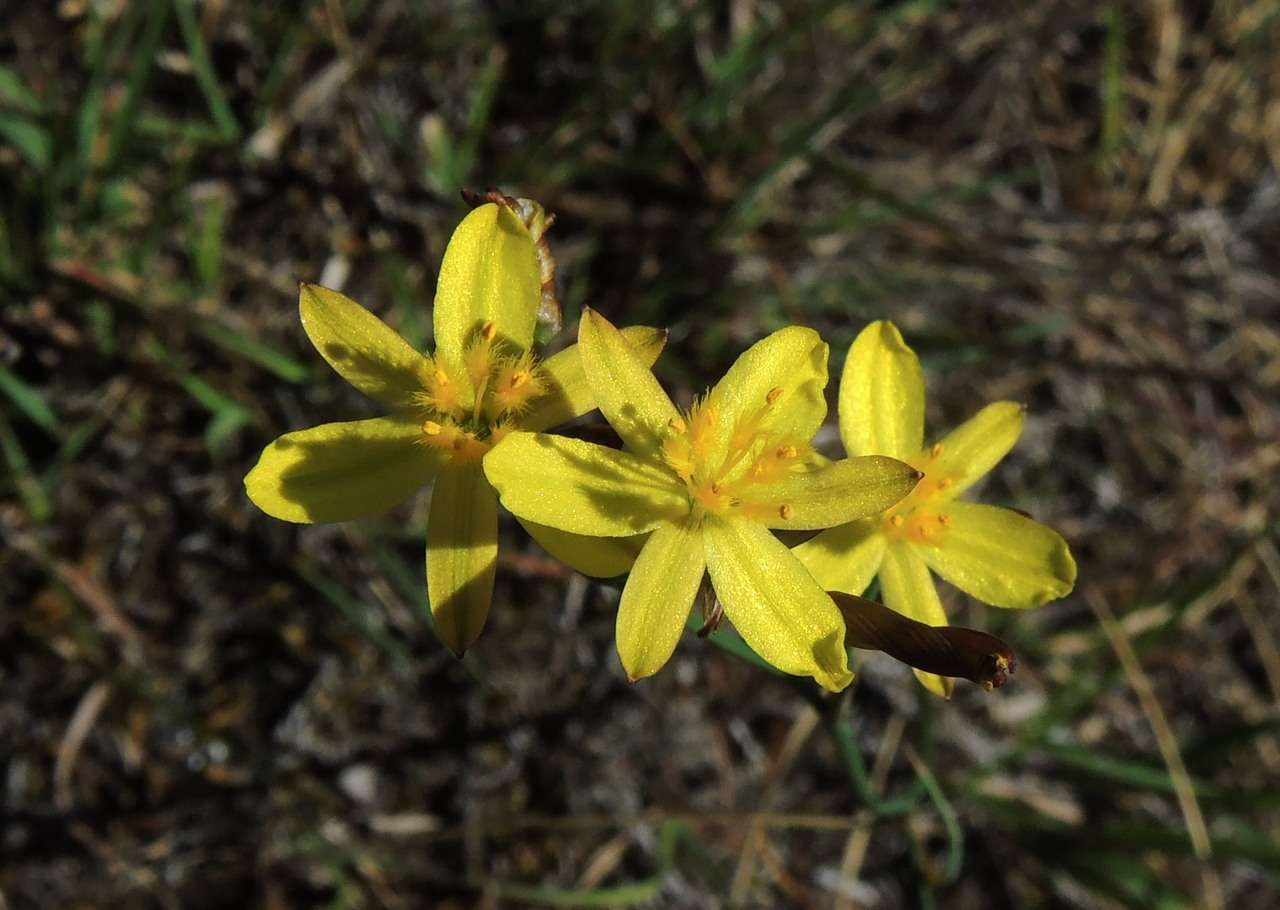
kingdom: Plantae
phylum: Tracheophyta
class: Liliopsida
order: Asparagales
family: Asphodelaceae
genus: Tricoryne
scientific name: Tricoryne elatior
